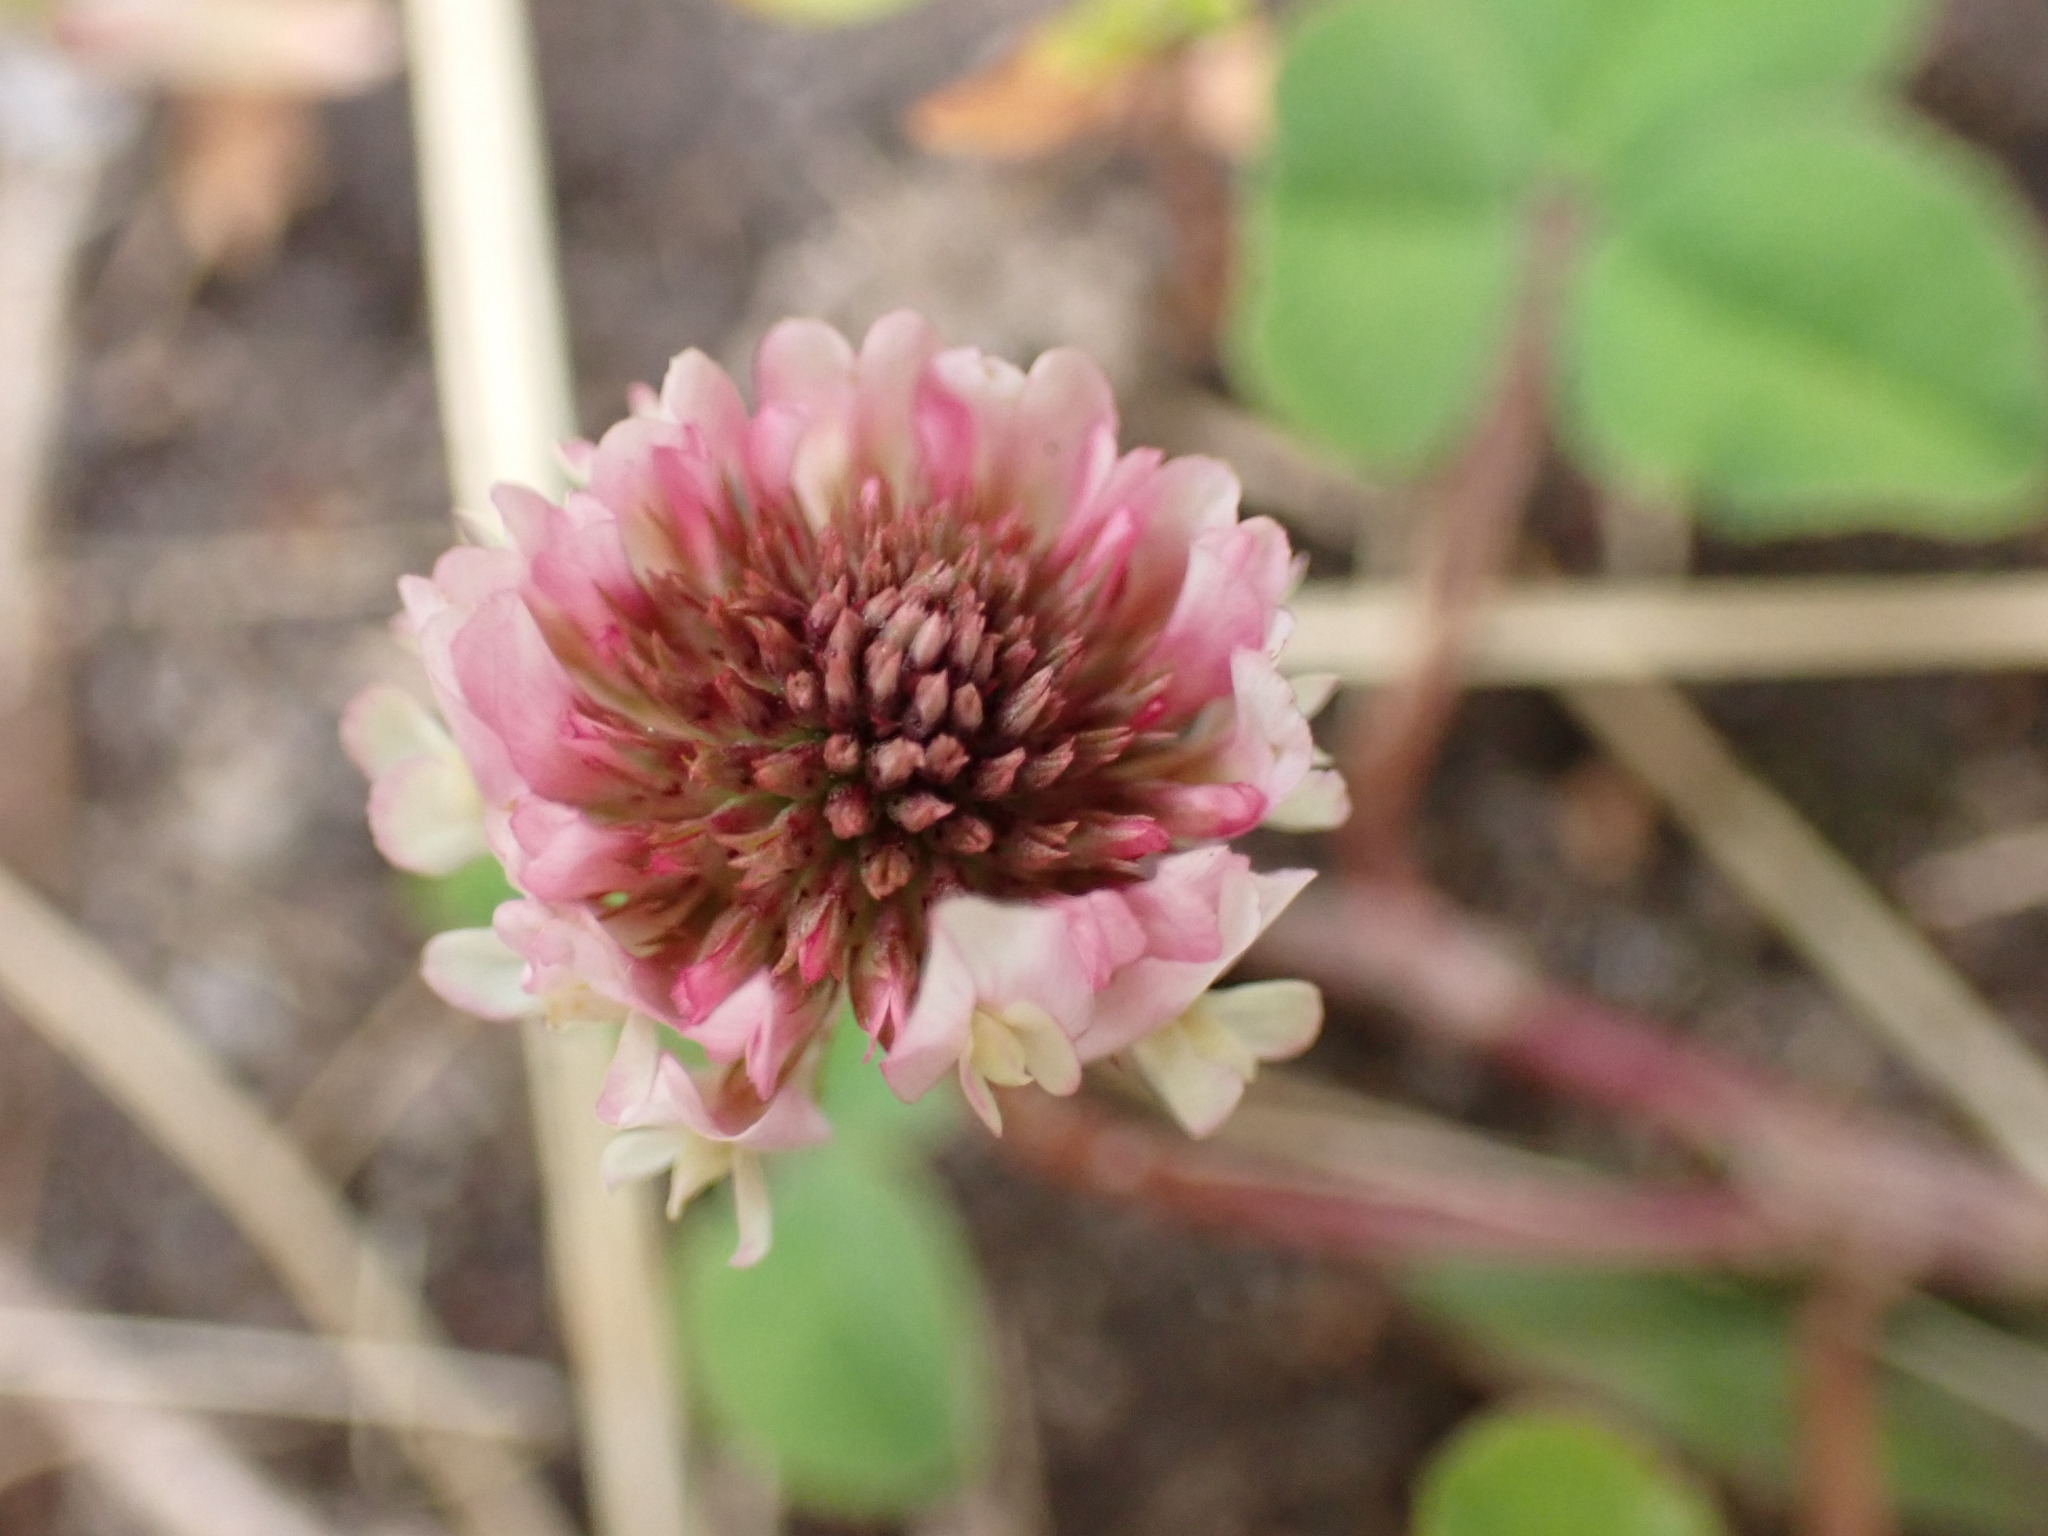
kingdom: Plantae
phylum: Tracheophyta
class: Magnoliopsida
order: Fabales
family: Fabaceae
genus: Trifolium
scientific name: Trifolium hybridum
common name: Alsike clover
